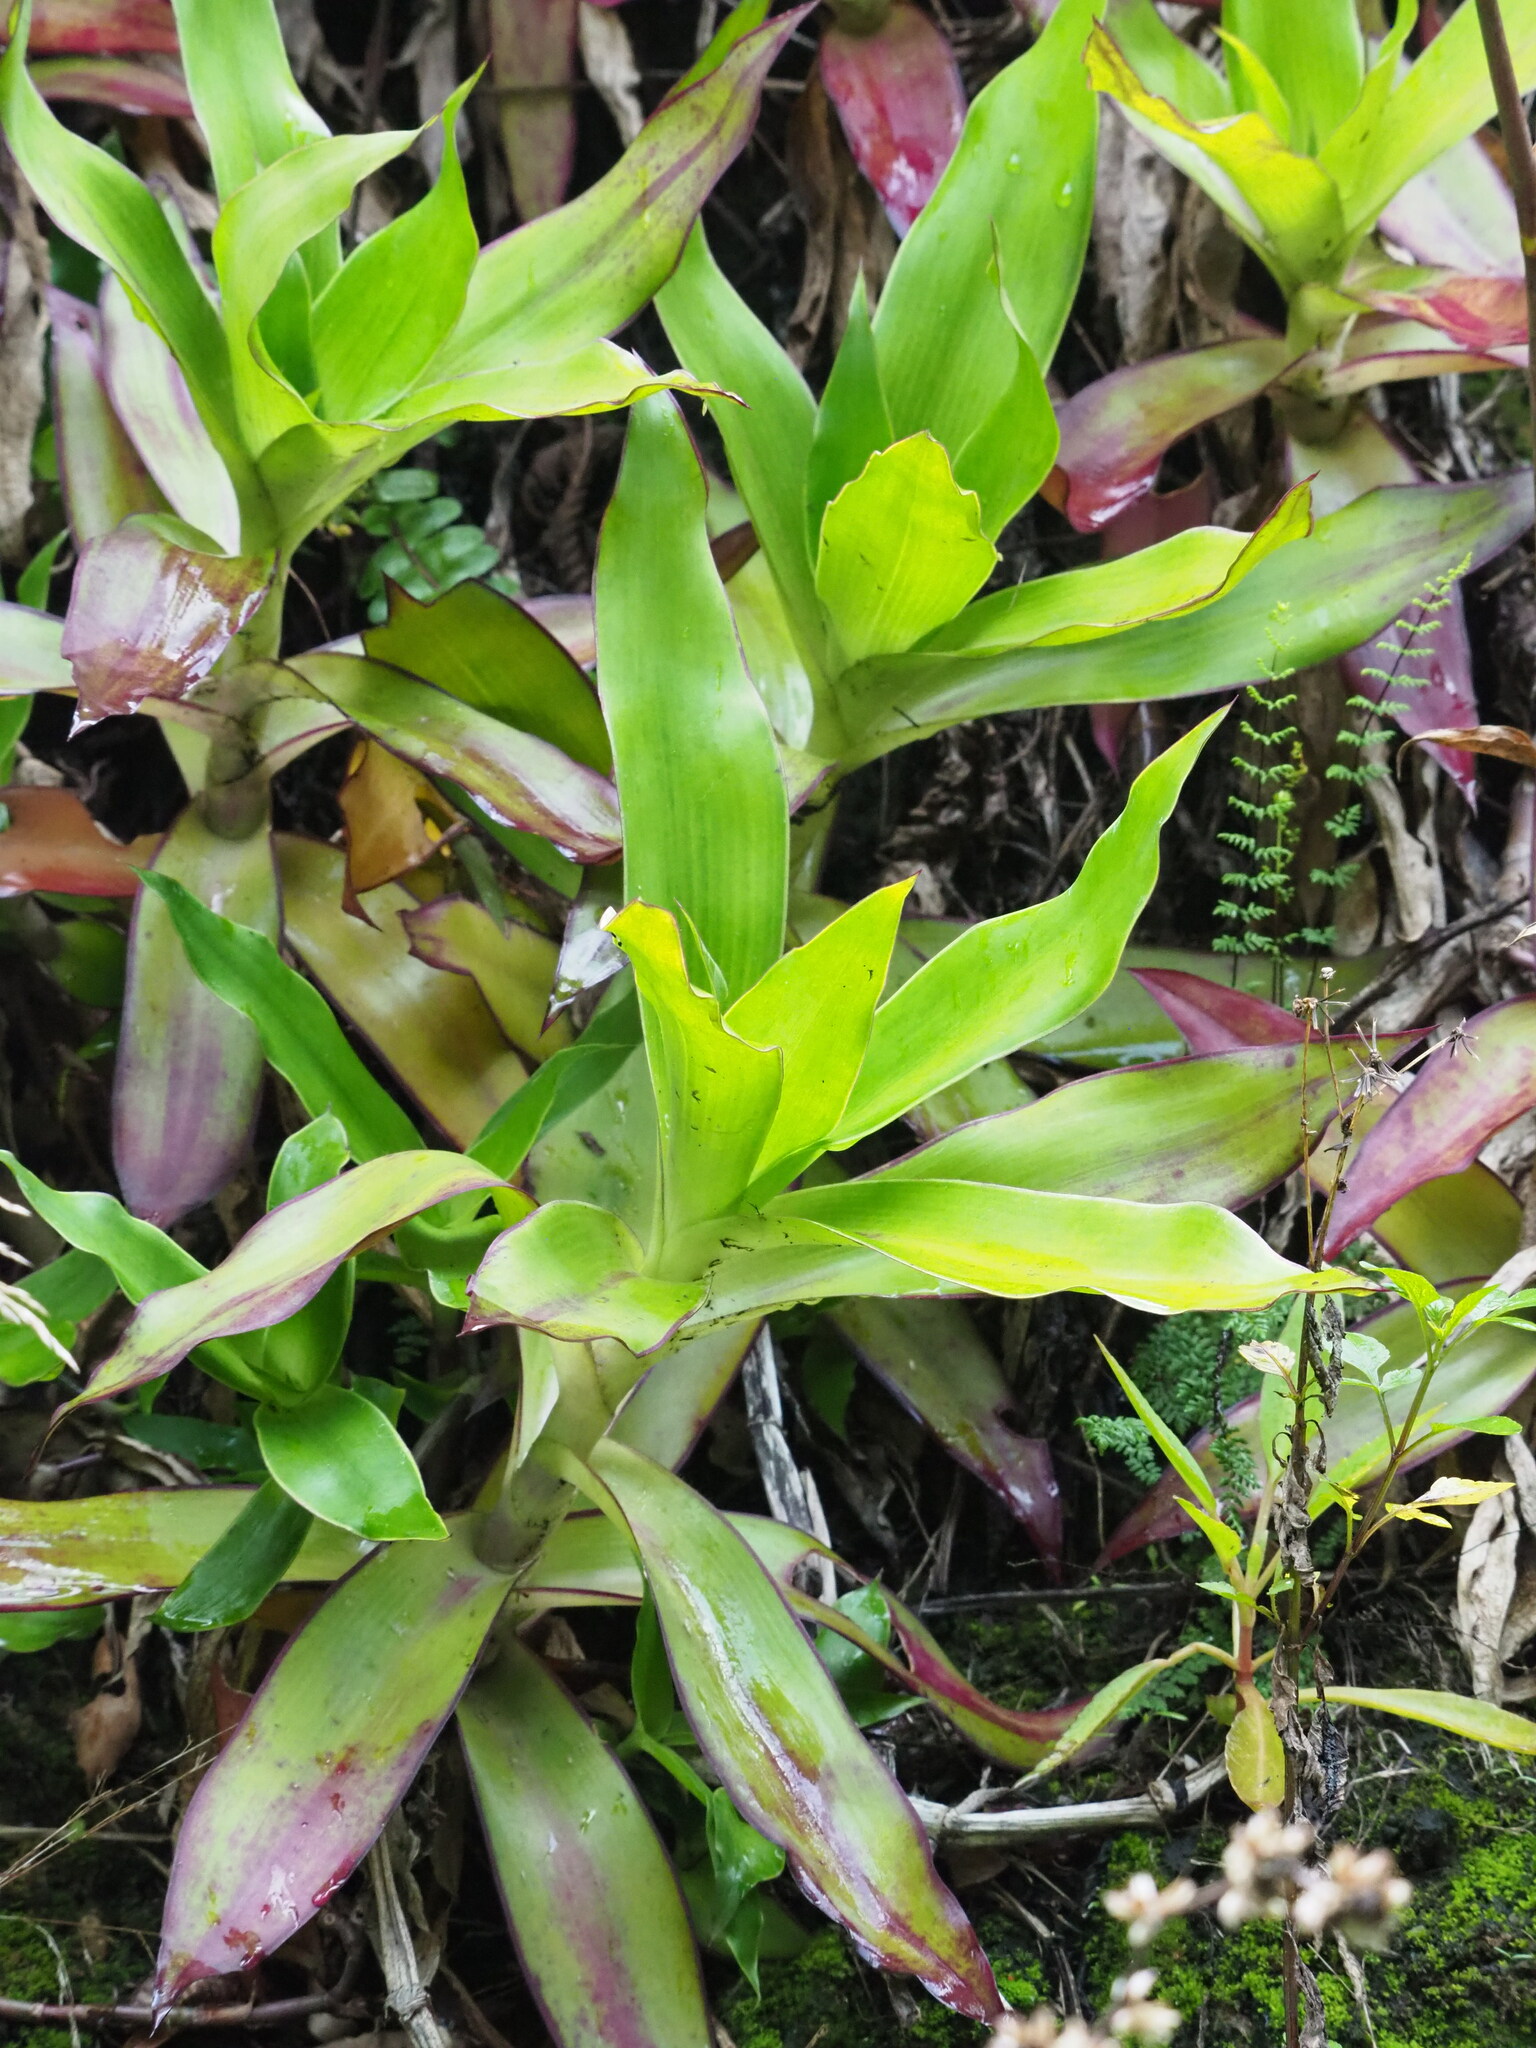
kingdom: Plantae
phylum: Tracheophyta
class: Liliopsida
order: Commelinales
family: Commelinaceae
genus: Callisia
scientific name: Callisia fragrans
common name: Basketplant
